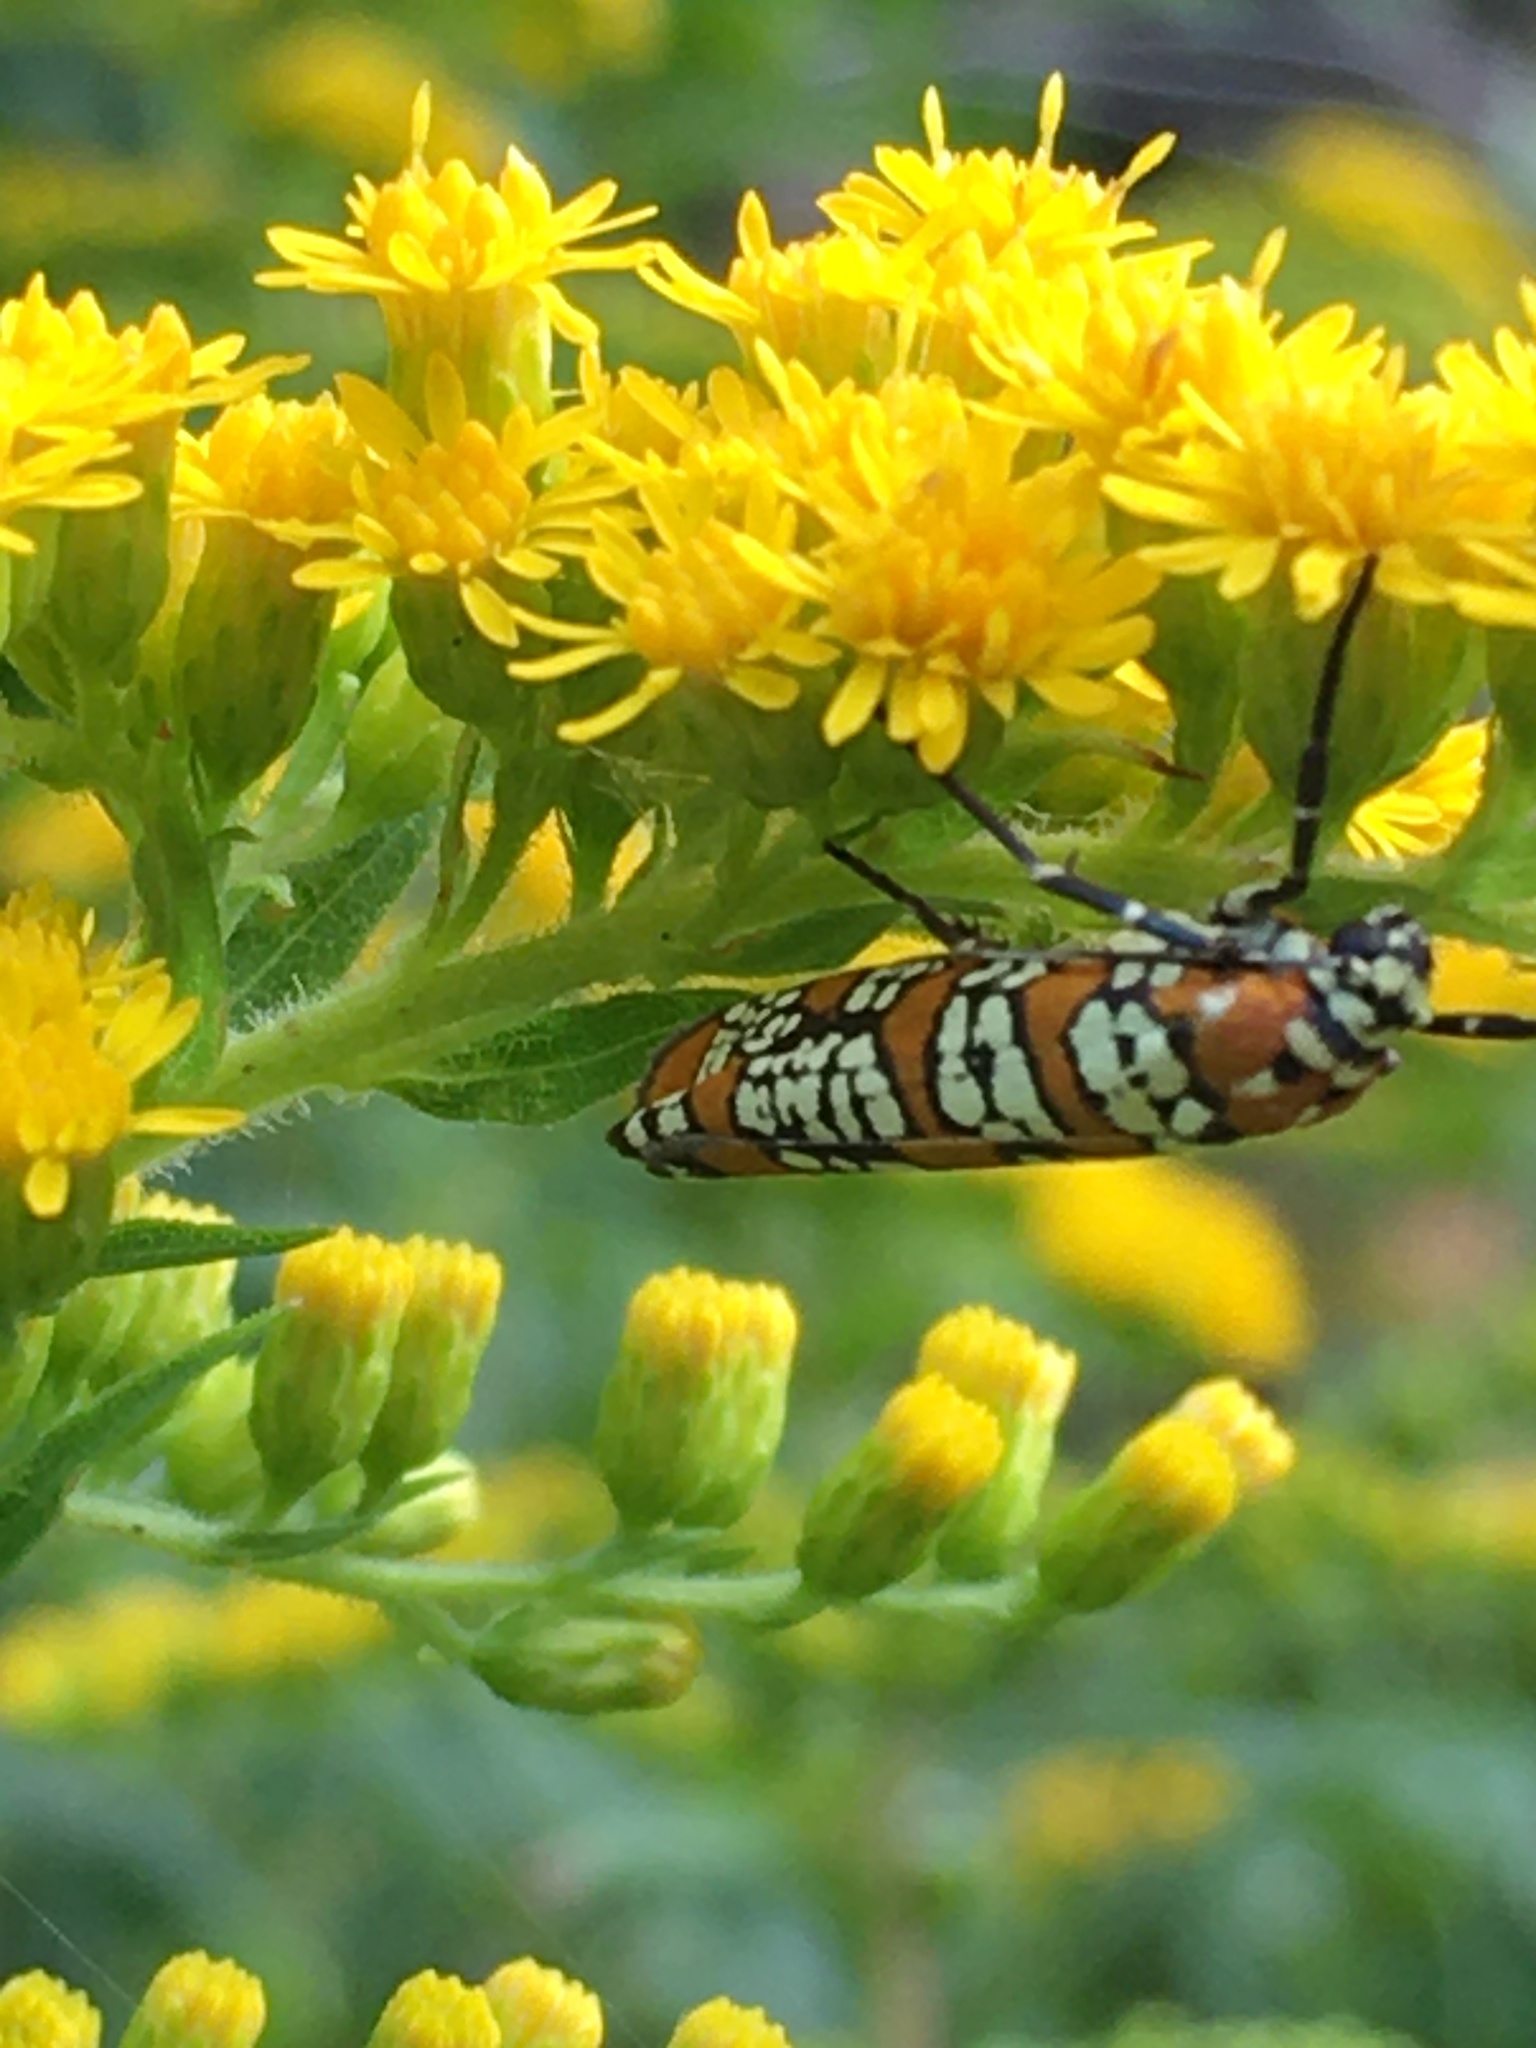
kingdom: Animalia
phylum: Arthropoda
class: Insecta
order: Lepidoptera
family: Attevidae
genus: Atteva
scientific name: Atteva punctella
